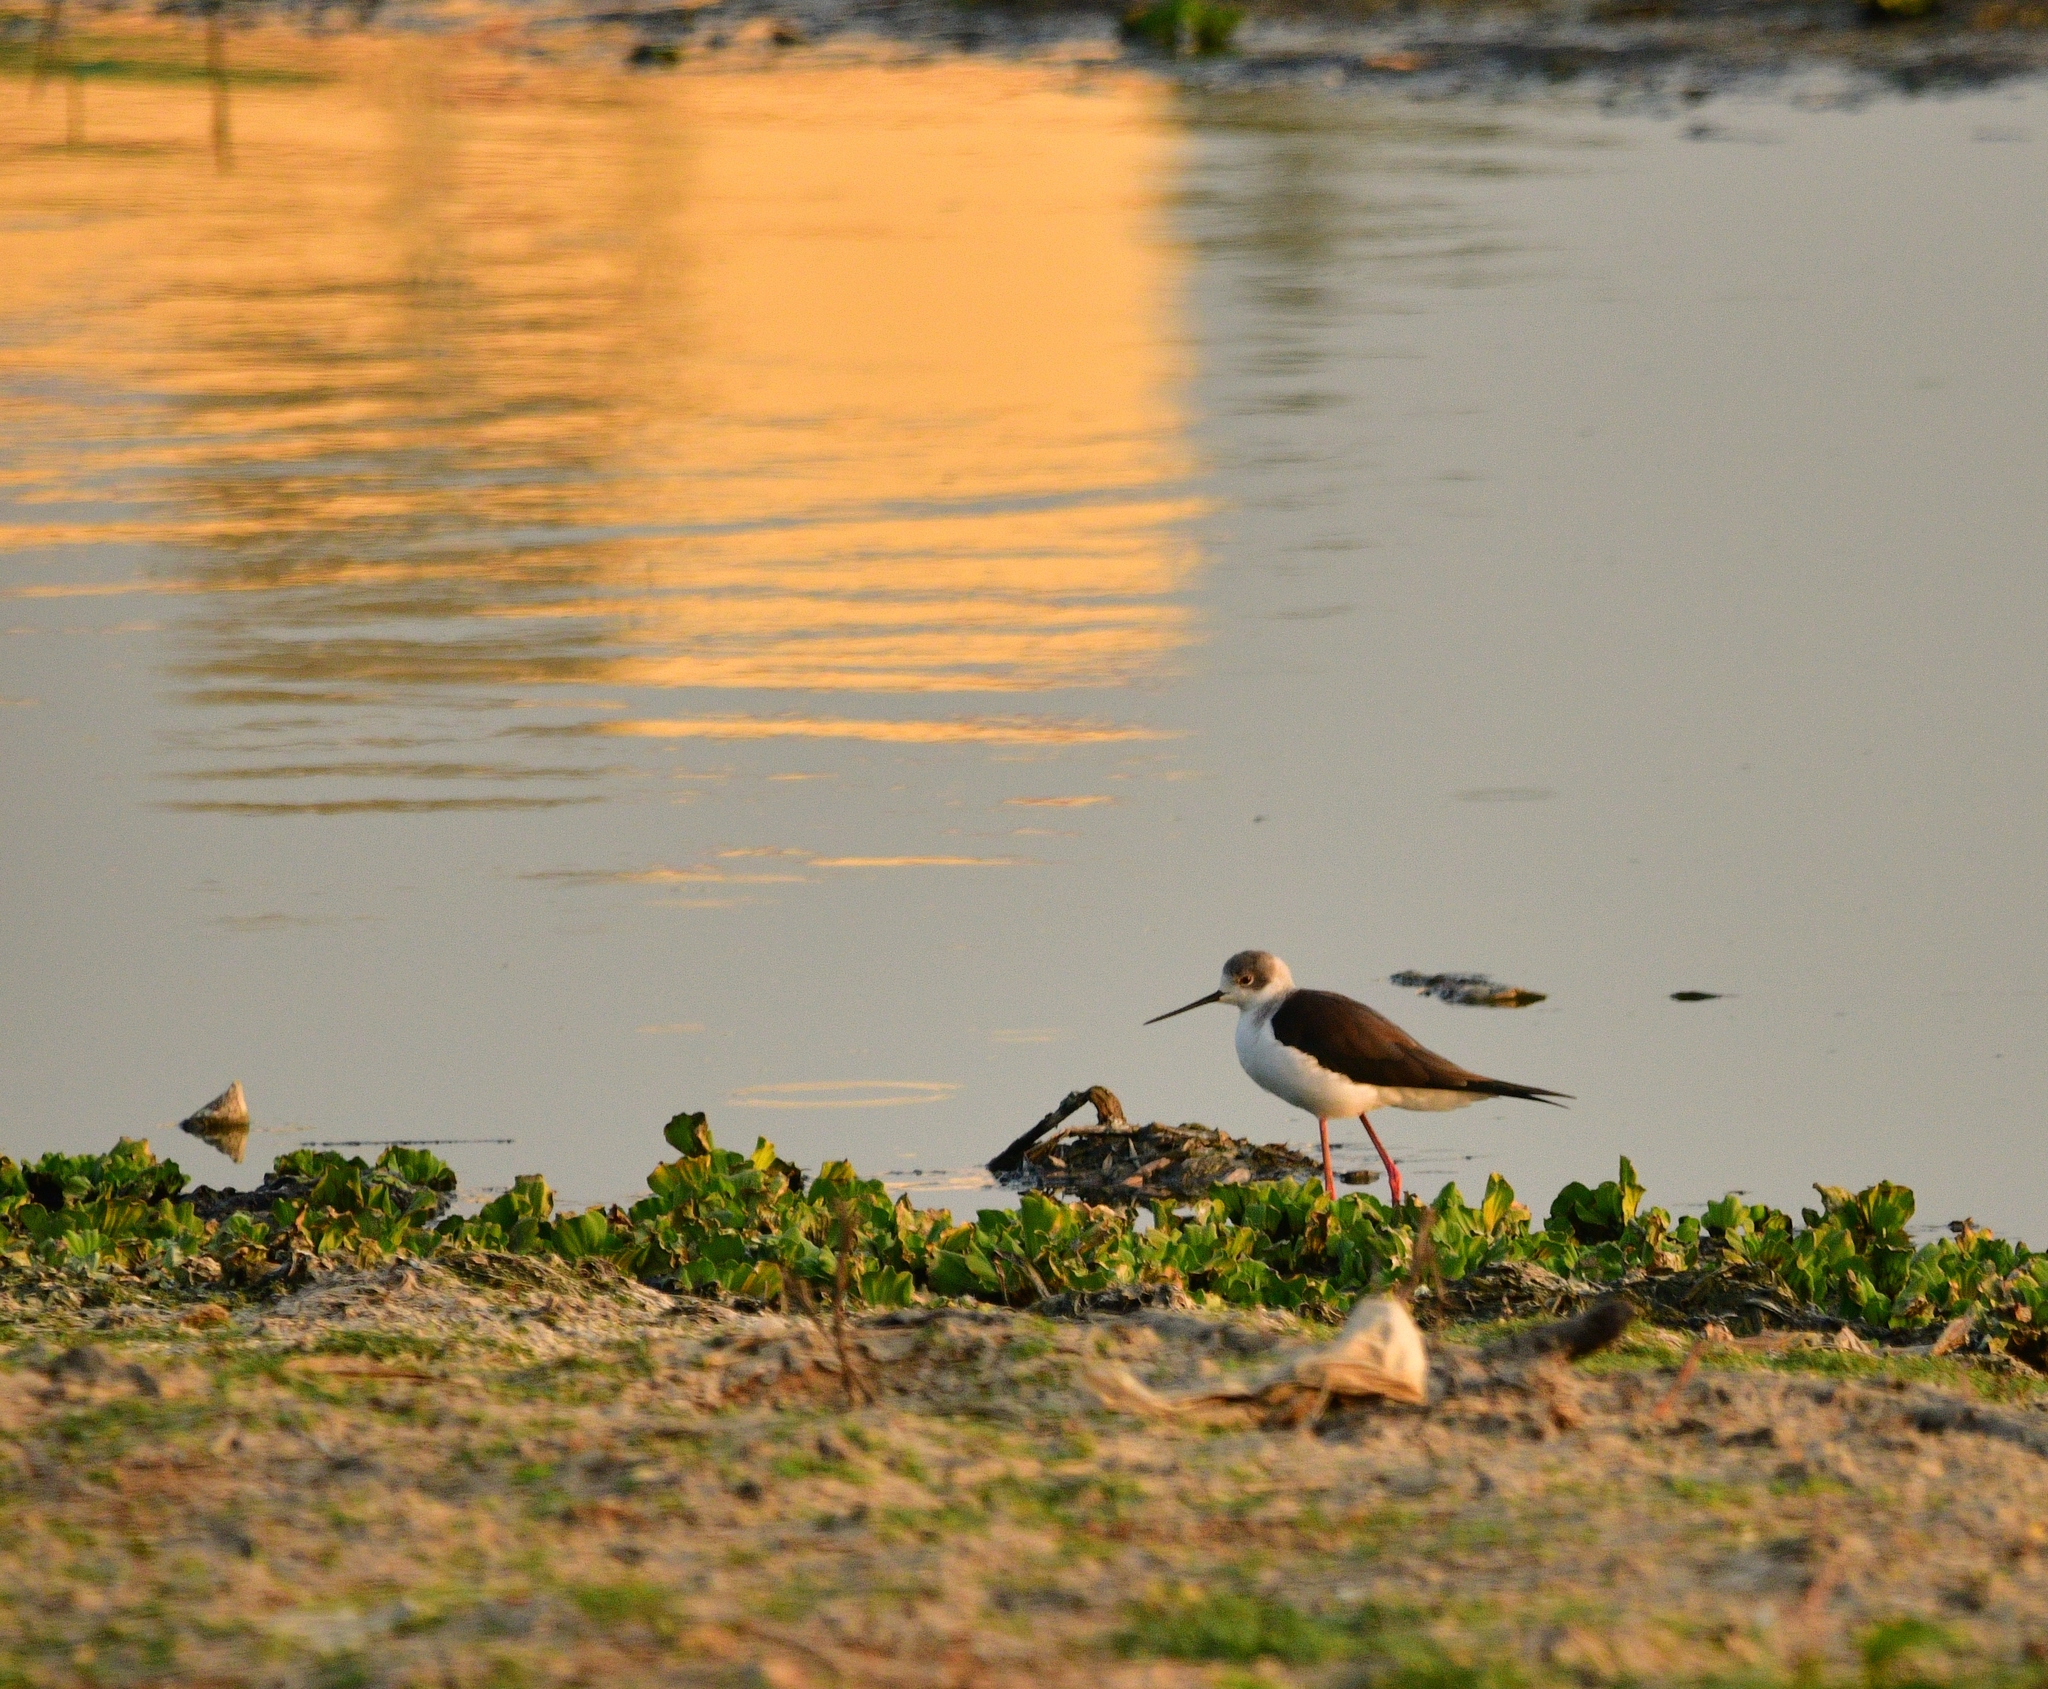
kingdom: Animalia
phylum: Chordata
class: Aves
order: Charadriiformes
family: Recurvirostridae
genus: Himantopus
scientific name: Himantopus himantopus
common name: Black-winged stilt
